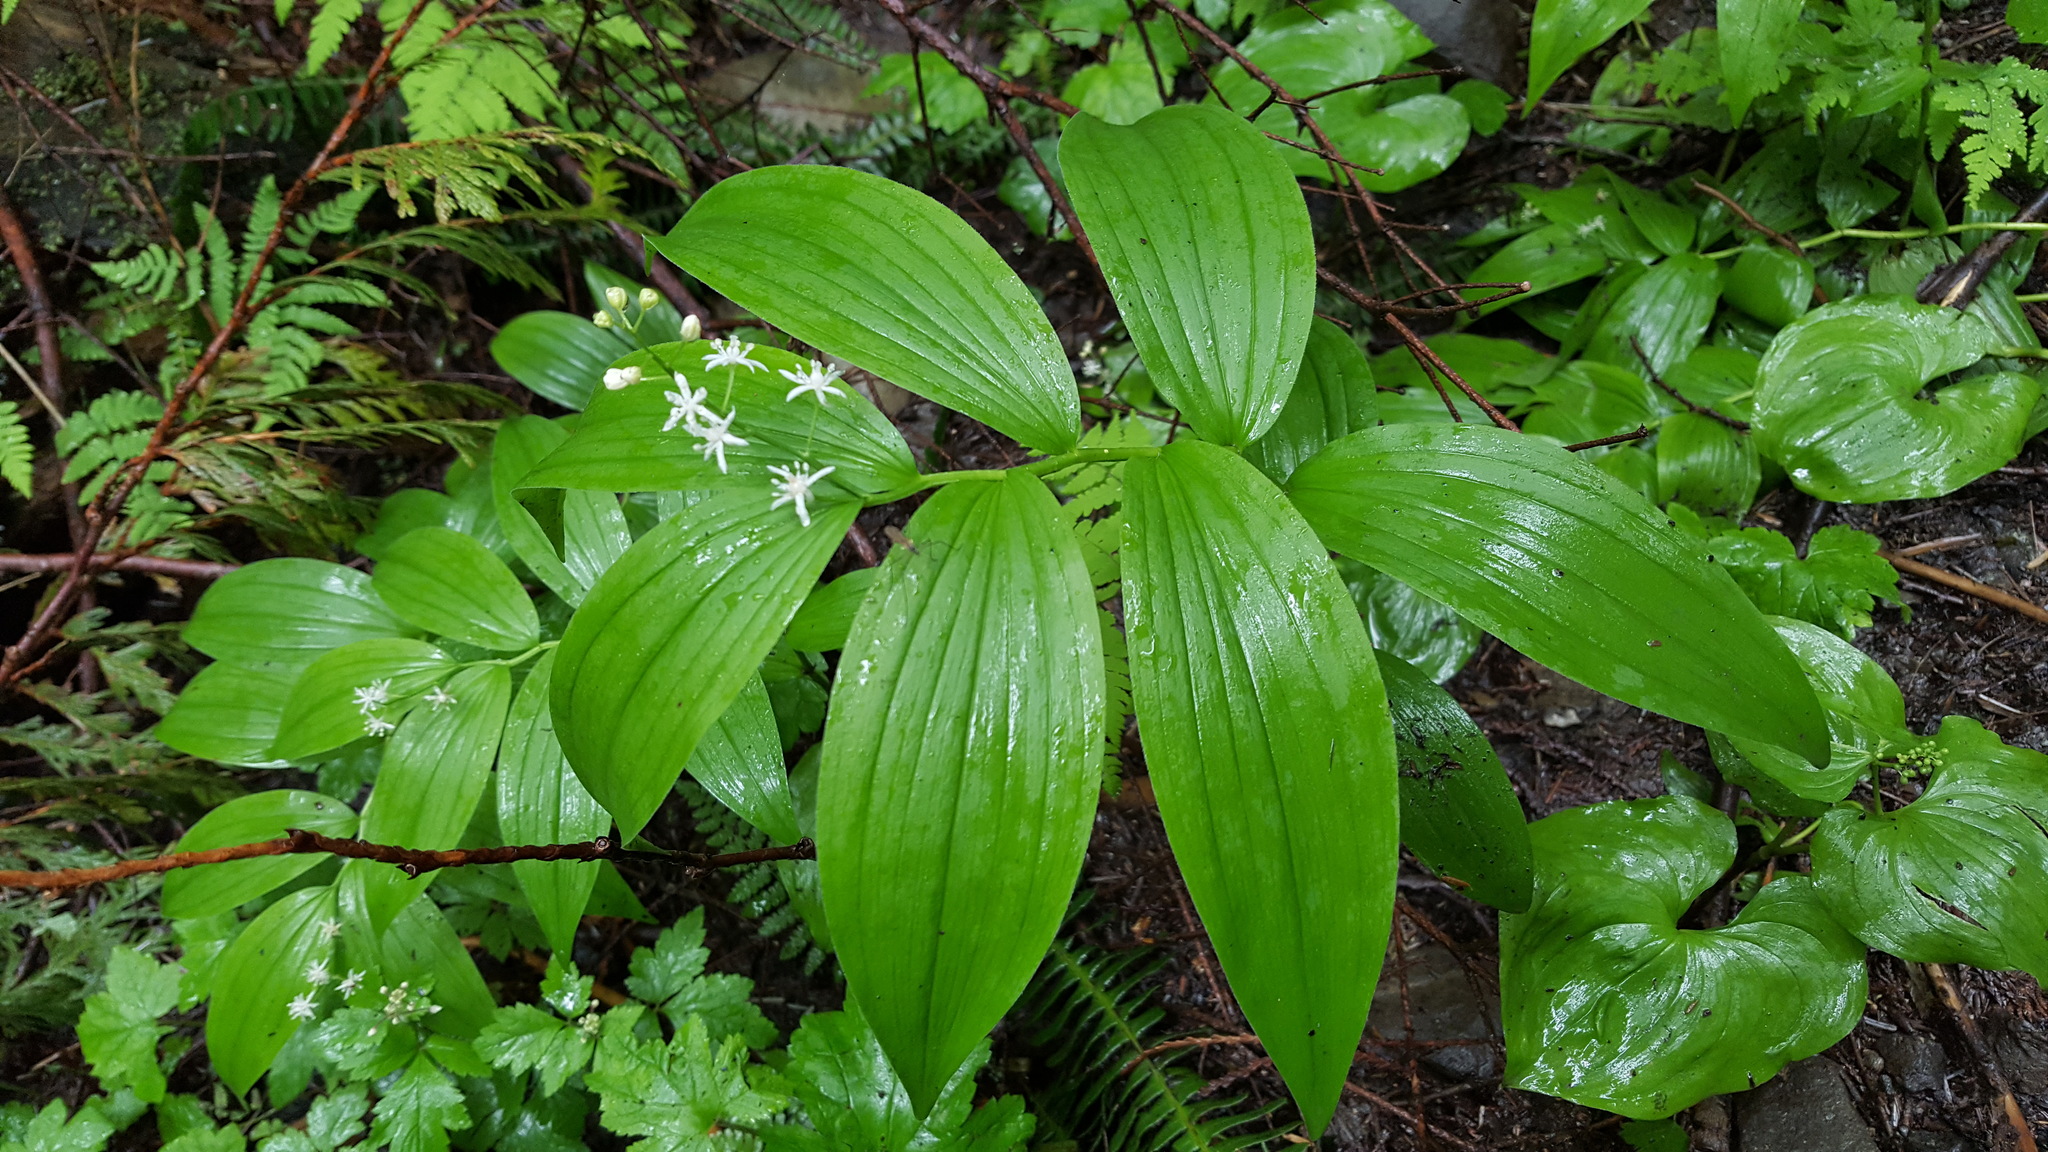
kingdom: Plantae
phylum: Tracheophyta
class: Liliopsida
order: Asparagales
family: Asparagaceae
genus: Maianthemum
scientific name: Maianthemum stellatum
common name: Little false solomon's seal
